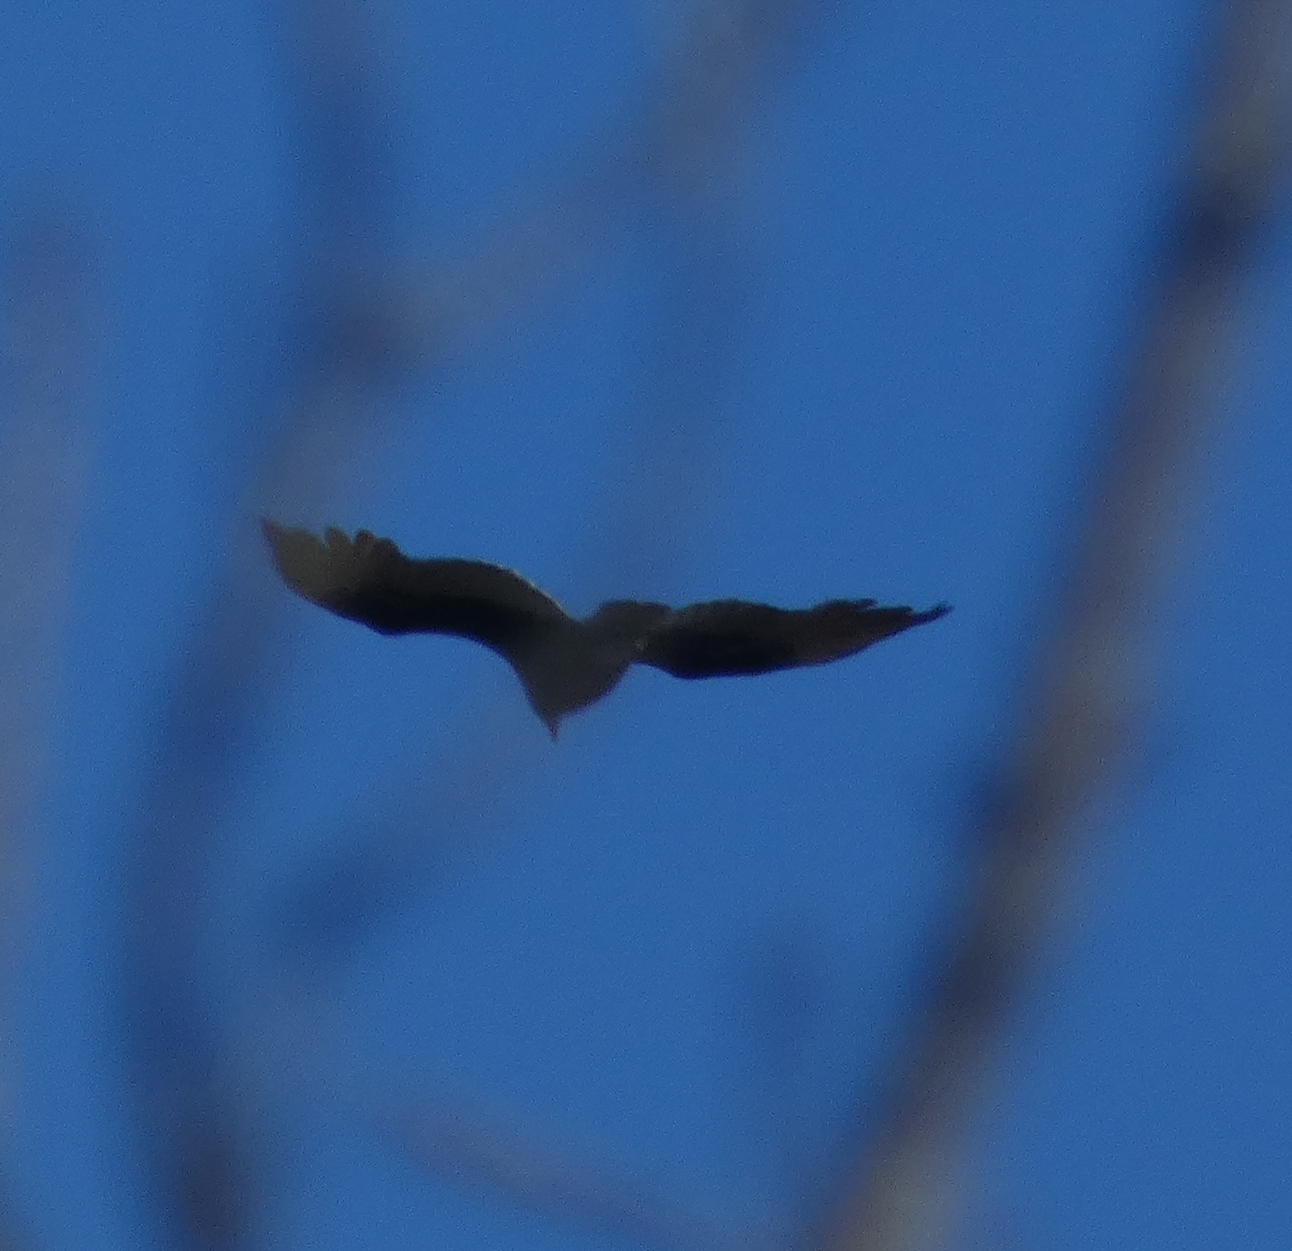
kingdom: Animalia
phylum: Chordata
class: Aves
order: Accipitriformes
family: Cathartidae
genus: Cathartes
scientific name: Cathartes aura
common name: Turkey vulture
